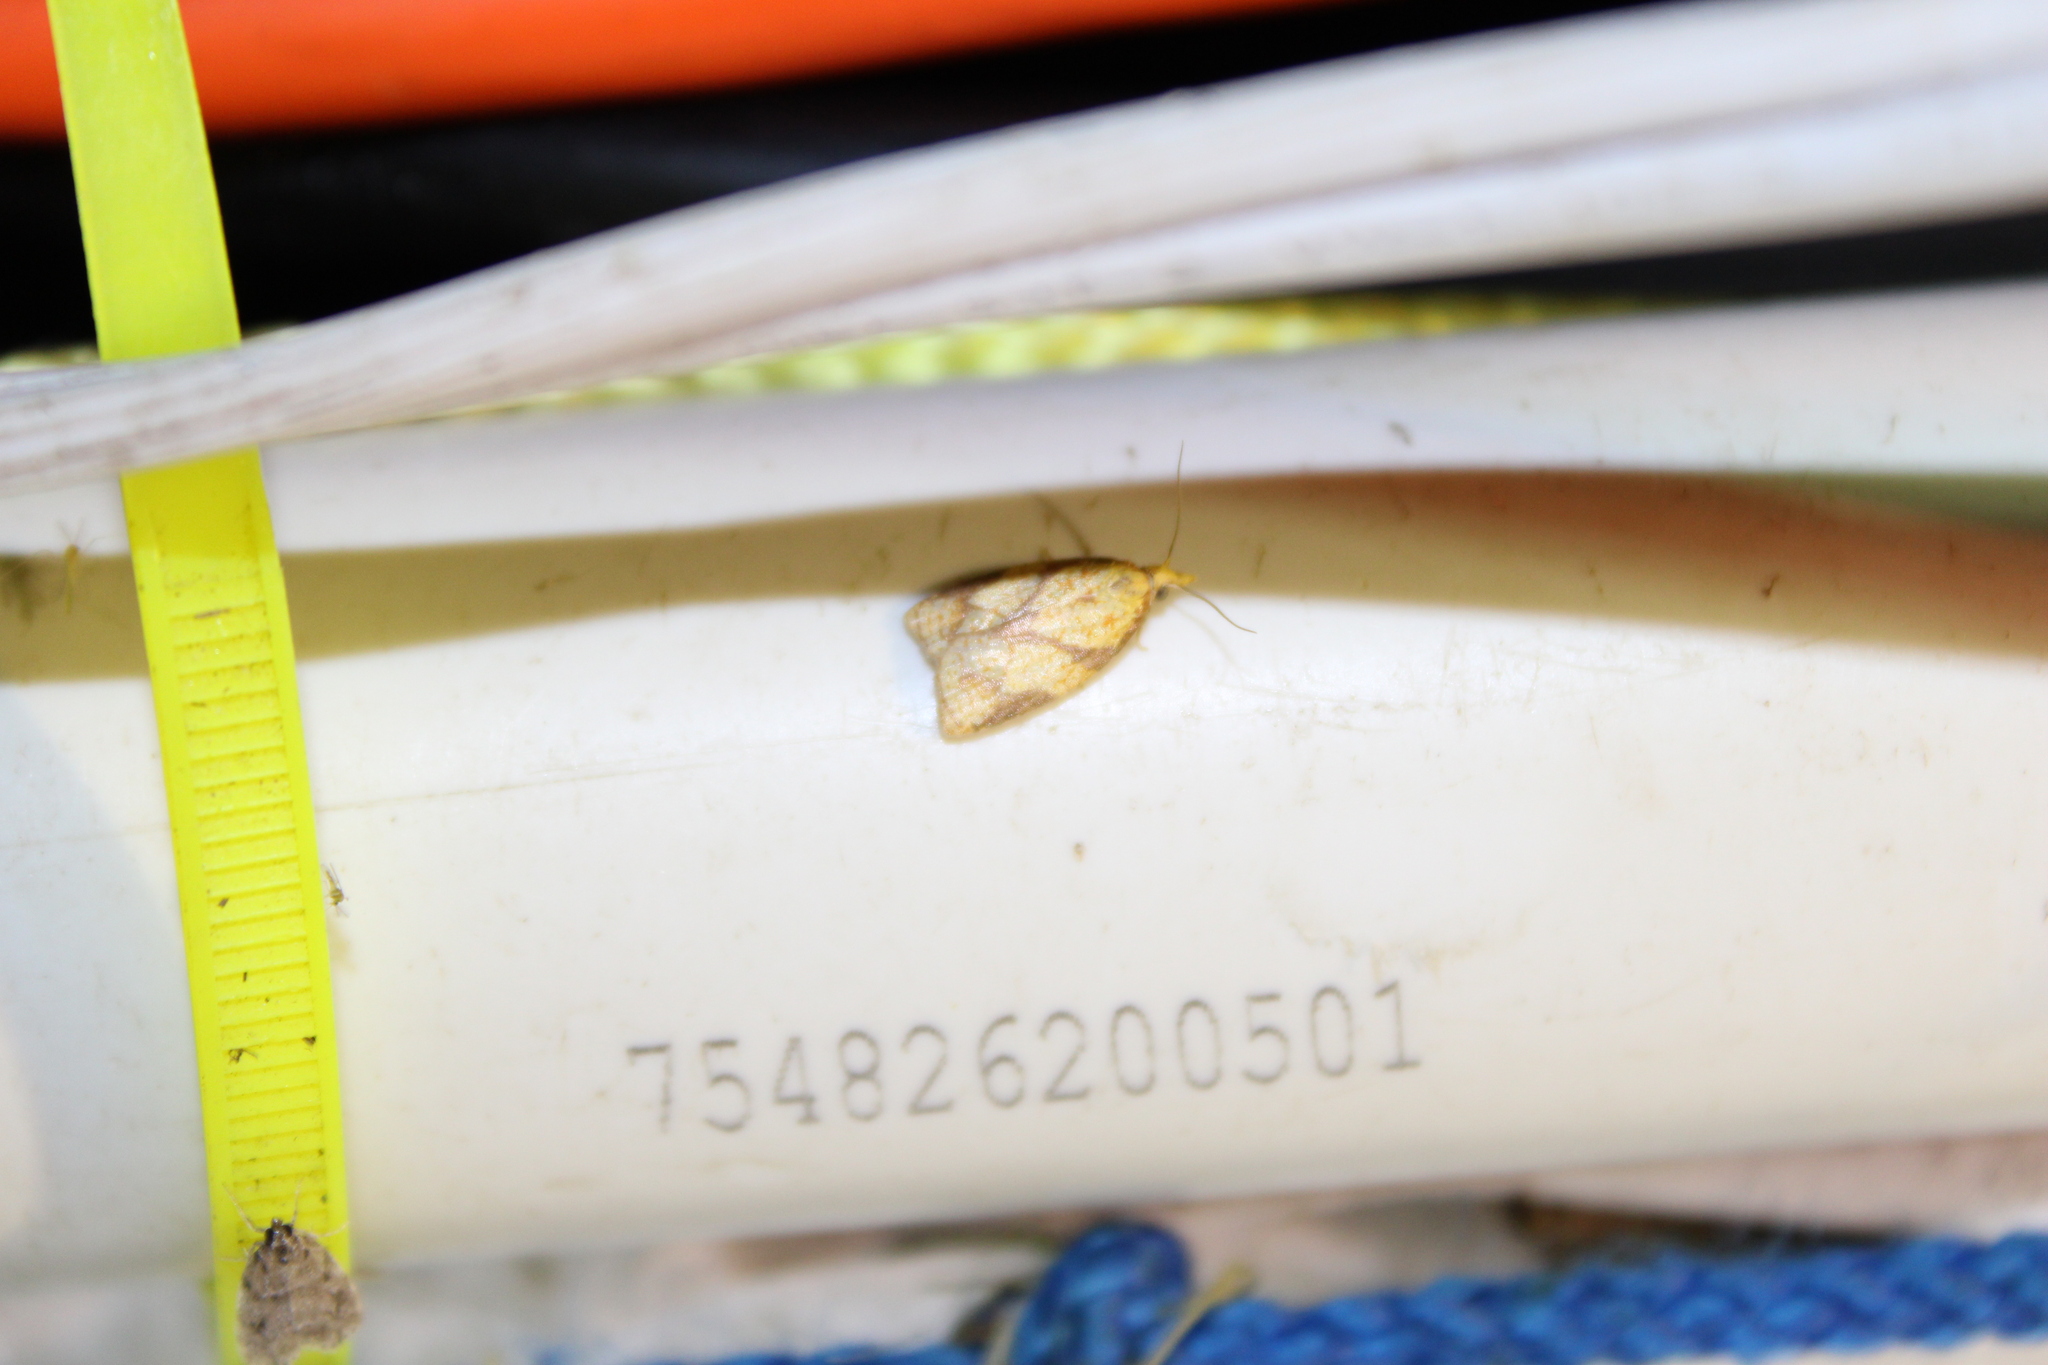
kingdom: Animalia
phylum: Arthropoda
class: Insecta
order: Lepidoptera
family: Tortricidae
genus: Cenopis
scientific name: Cenopis reticulatana
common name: Reticulated fruitworm moth
